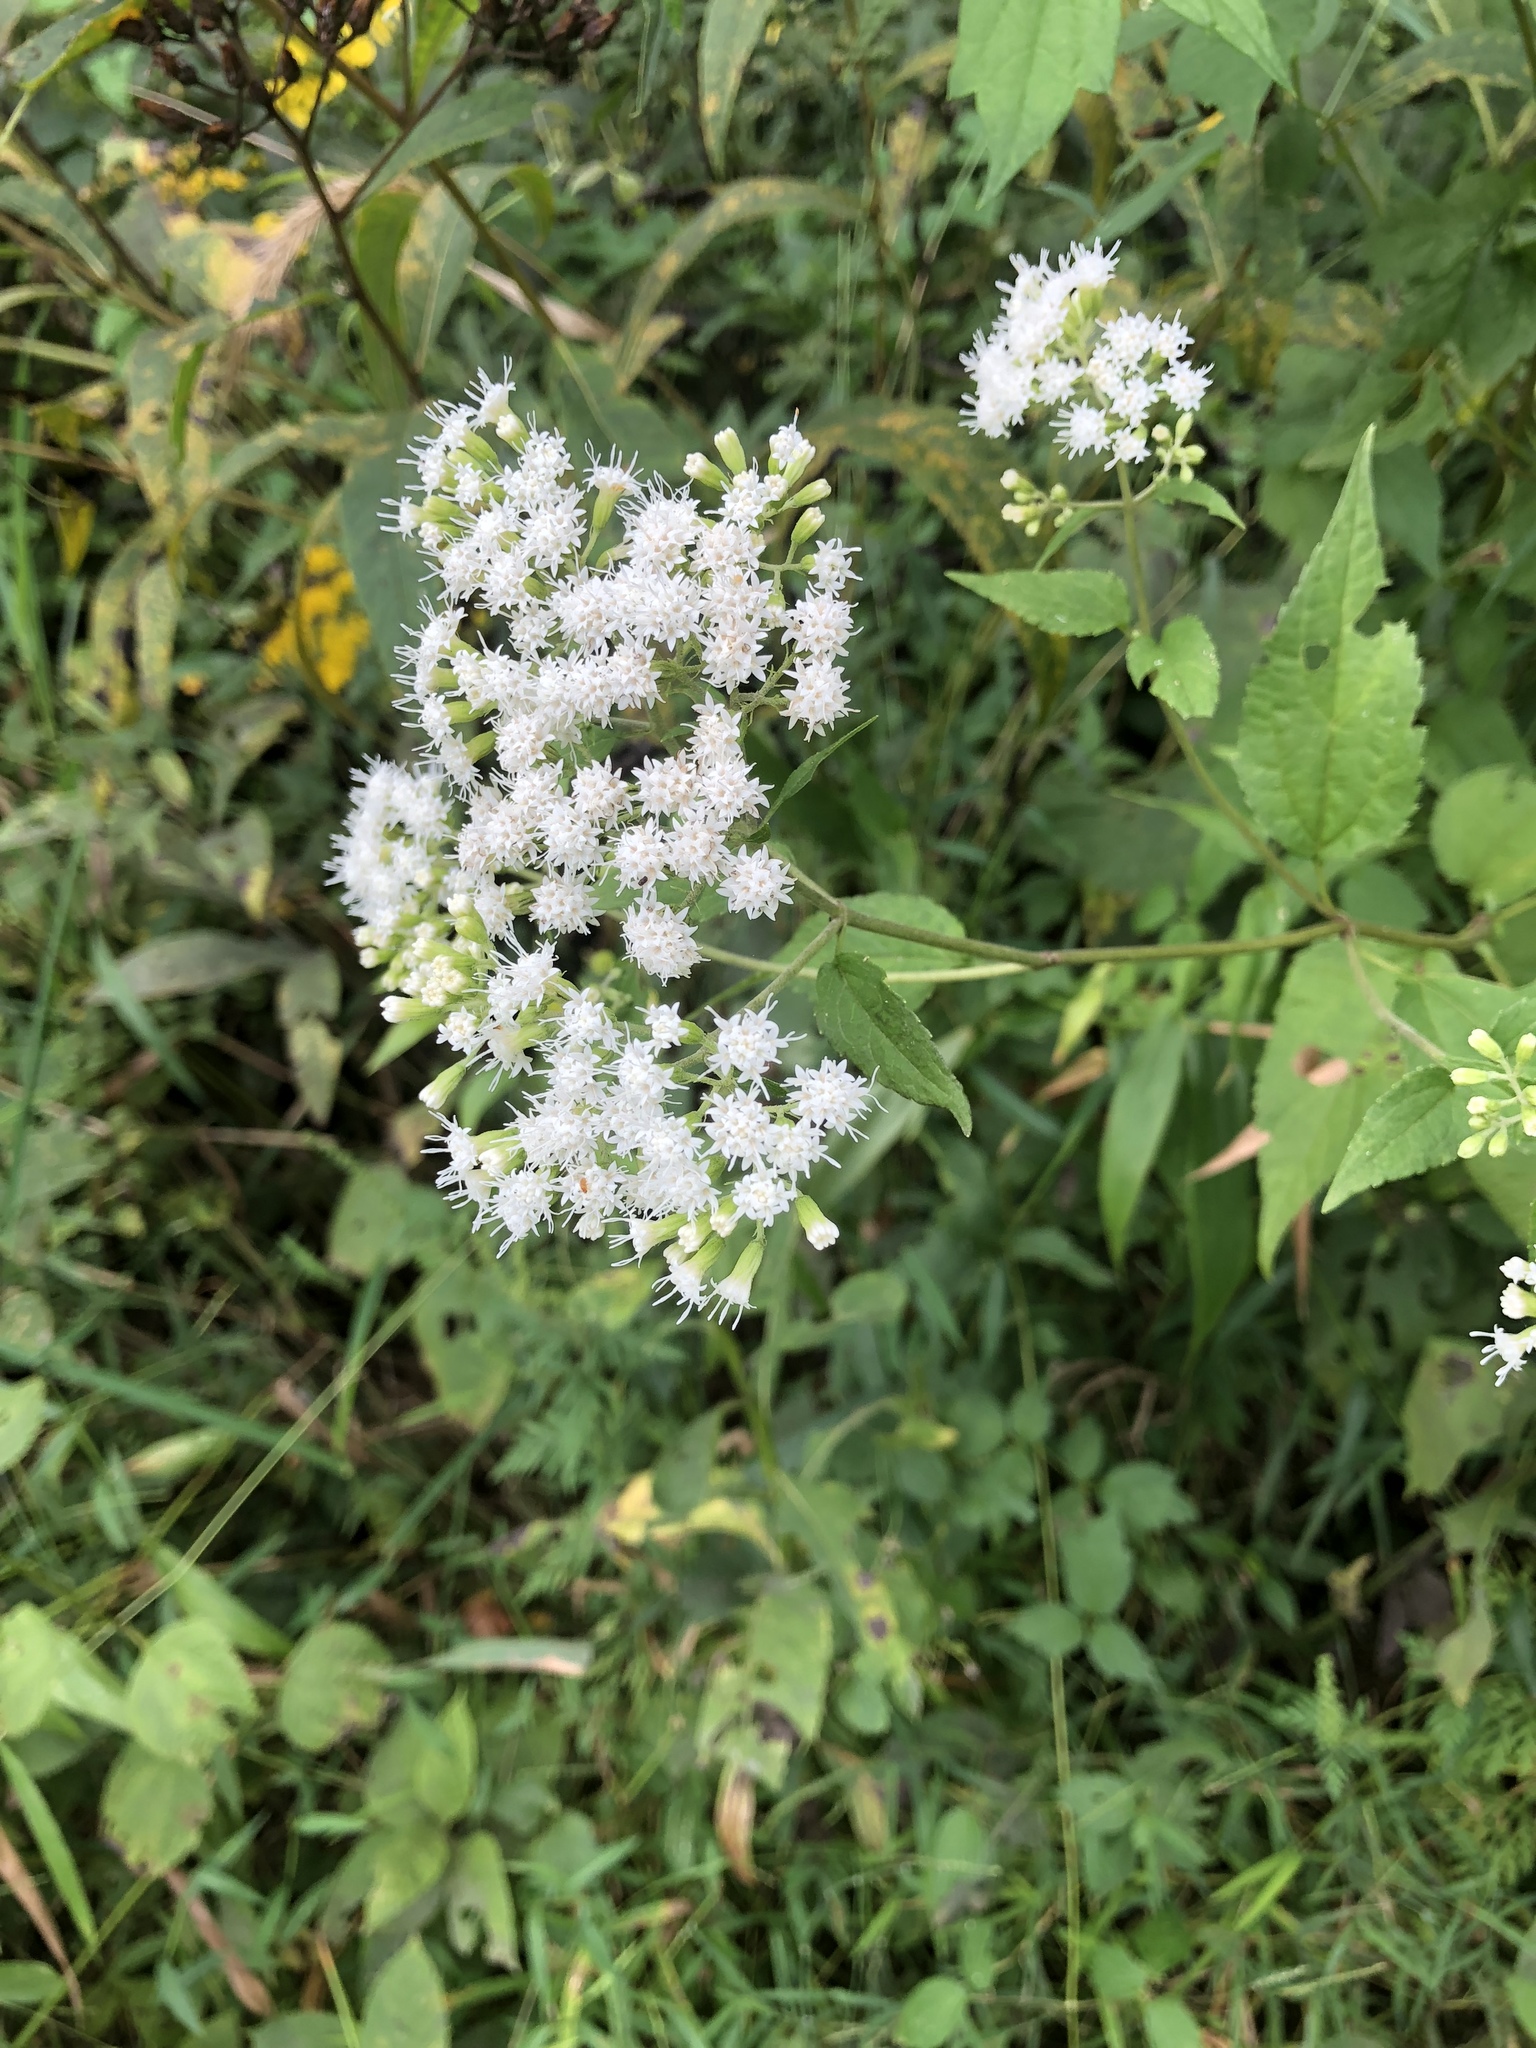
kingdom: Plantae
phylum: Tracheophyta
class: Magnoliopsida
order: Asterales
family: Asteraceae
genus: Ageratina
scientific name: Ageratina altissima
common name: White snakeroot
